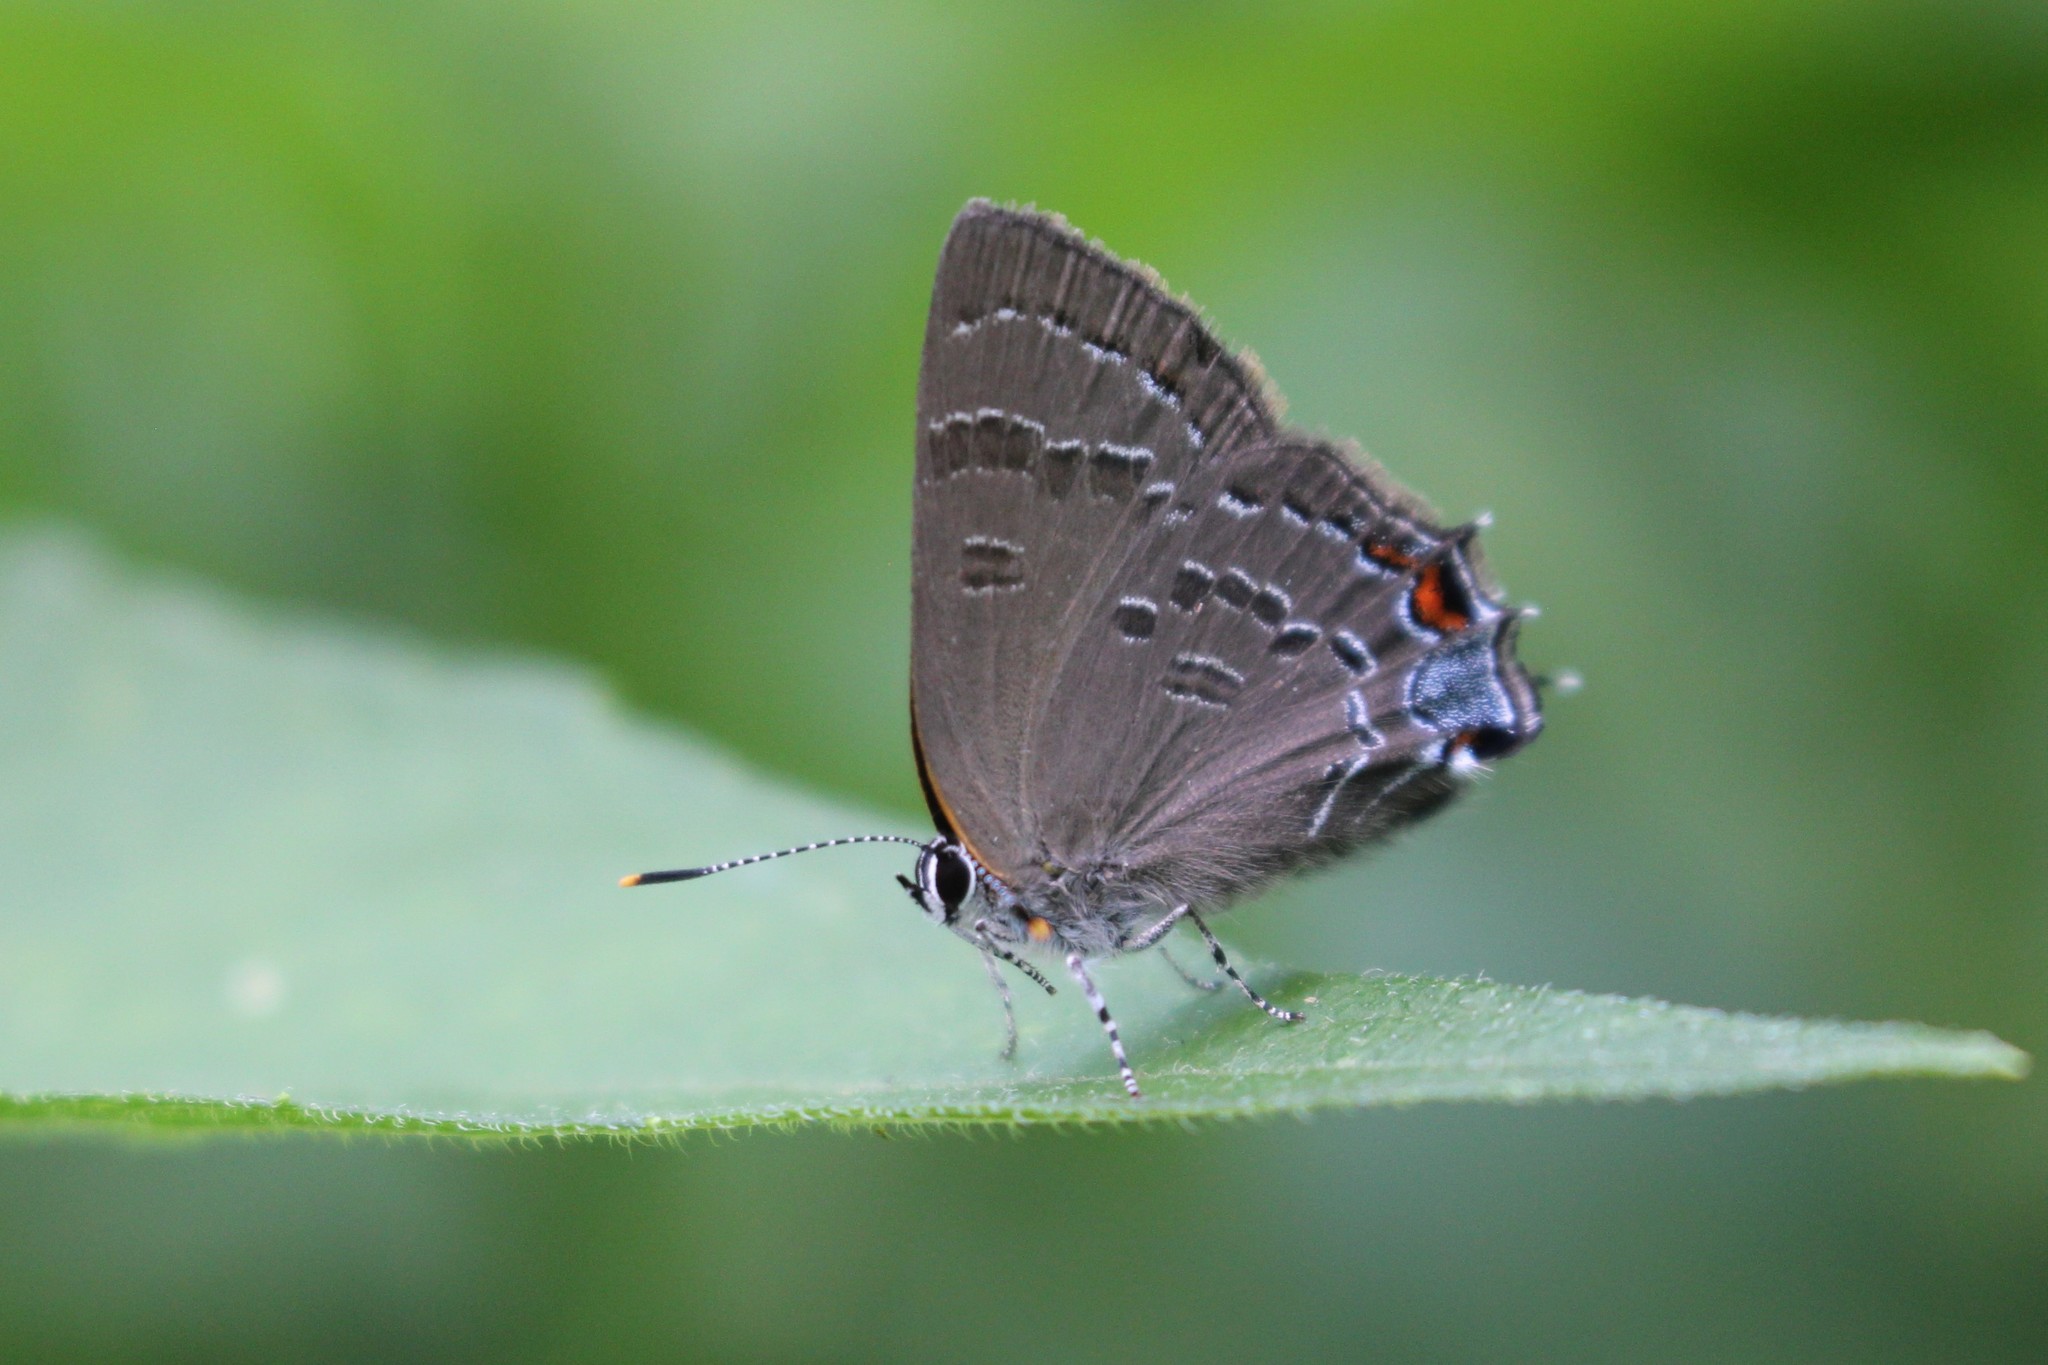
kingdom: Animalia
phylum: Arthropoda
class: Insecta
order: Lepidoptera
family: Lycaenidae
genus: Satyrium
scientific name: Satyrium calanus
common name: Banded hairstreak
